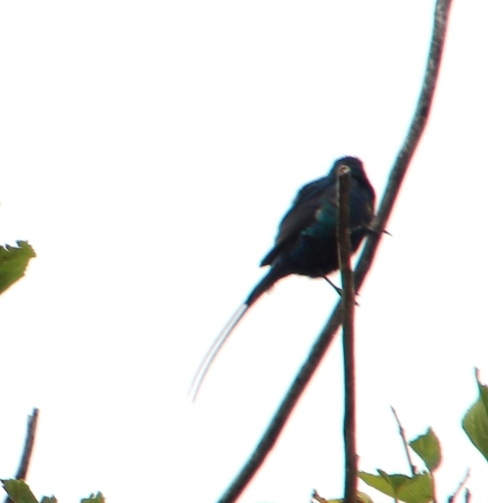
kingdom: Animalia
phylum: Chordata
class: Aves
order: Passeriformes
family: Nectariniidae
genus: Nectarinia
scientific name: Nectarinia famosa
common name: Malachite sunbird
